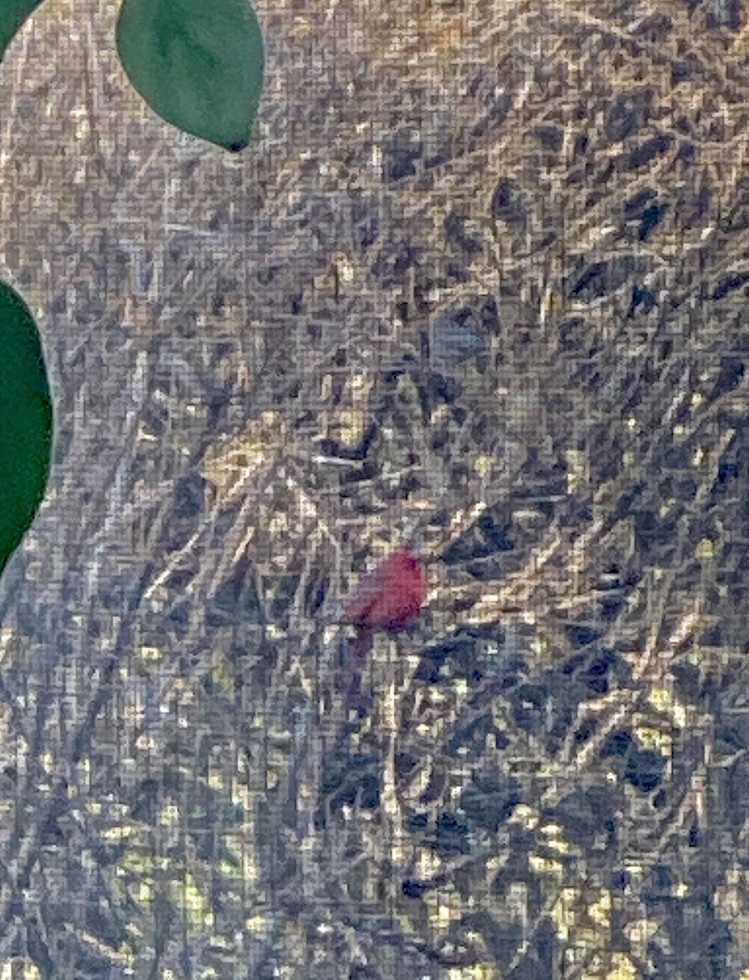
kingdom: Animalia
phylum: Chordata
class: Aves
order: Passeriformes
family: Cardinalidae
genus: Cardinalis
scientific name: Cardinalis cardinalis
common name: Northern cardinal
